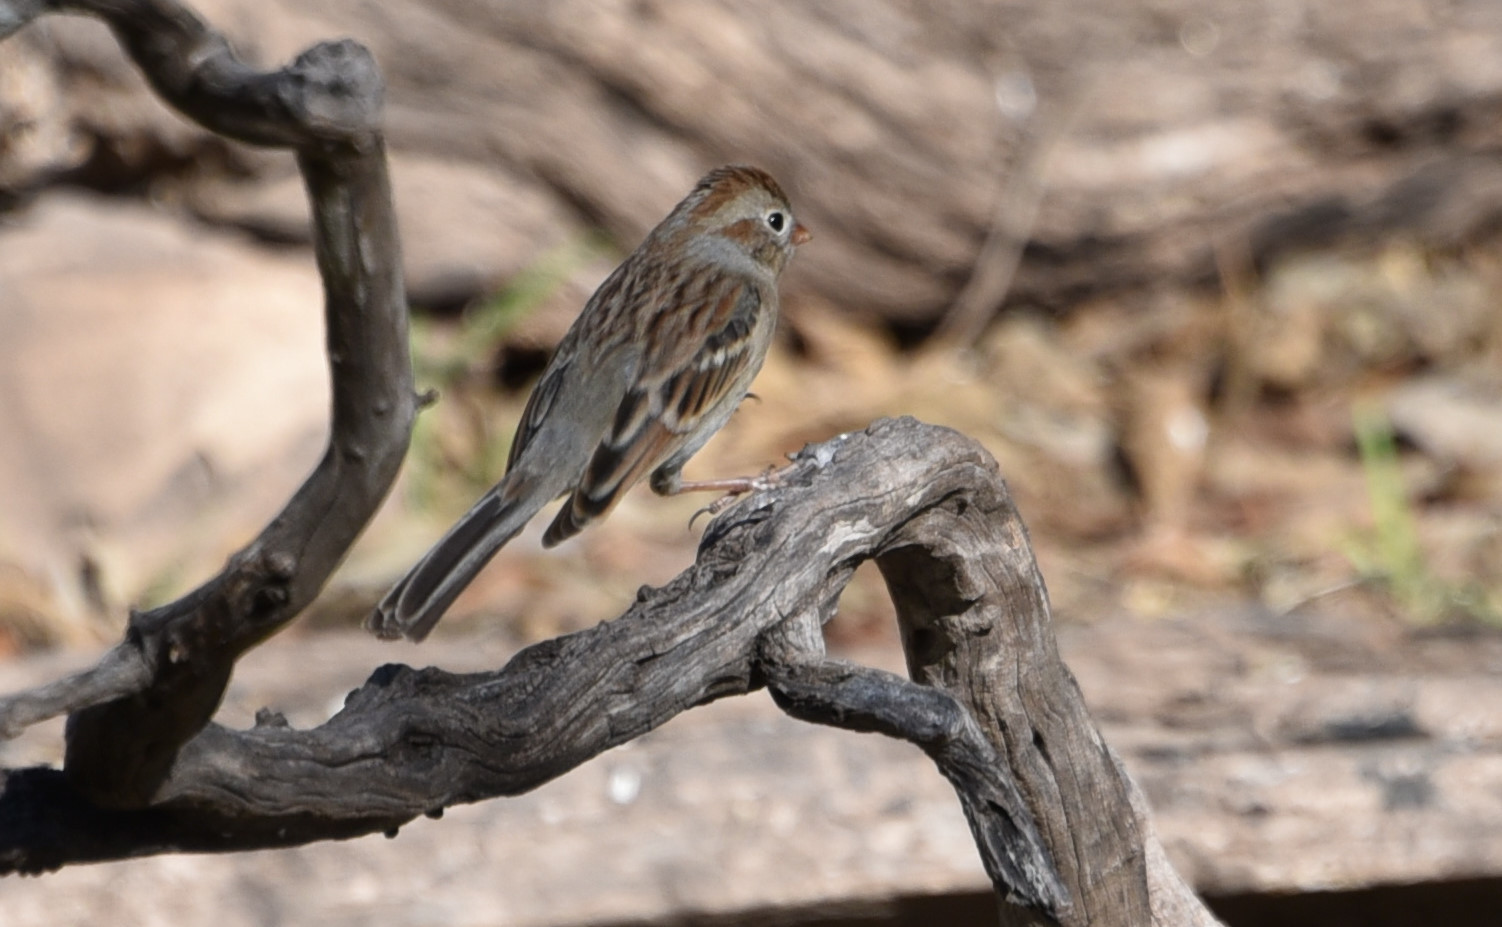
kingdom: Animalia
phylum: Chordata
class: Aves
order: Passeriformes
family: Passerellidae
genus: Spizella
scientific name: Spizella pusilla
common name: Field sparrow
